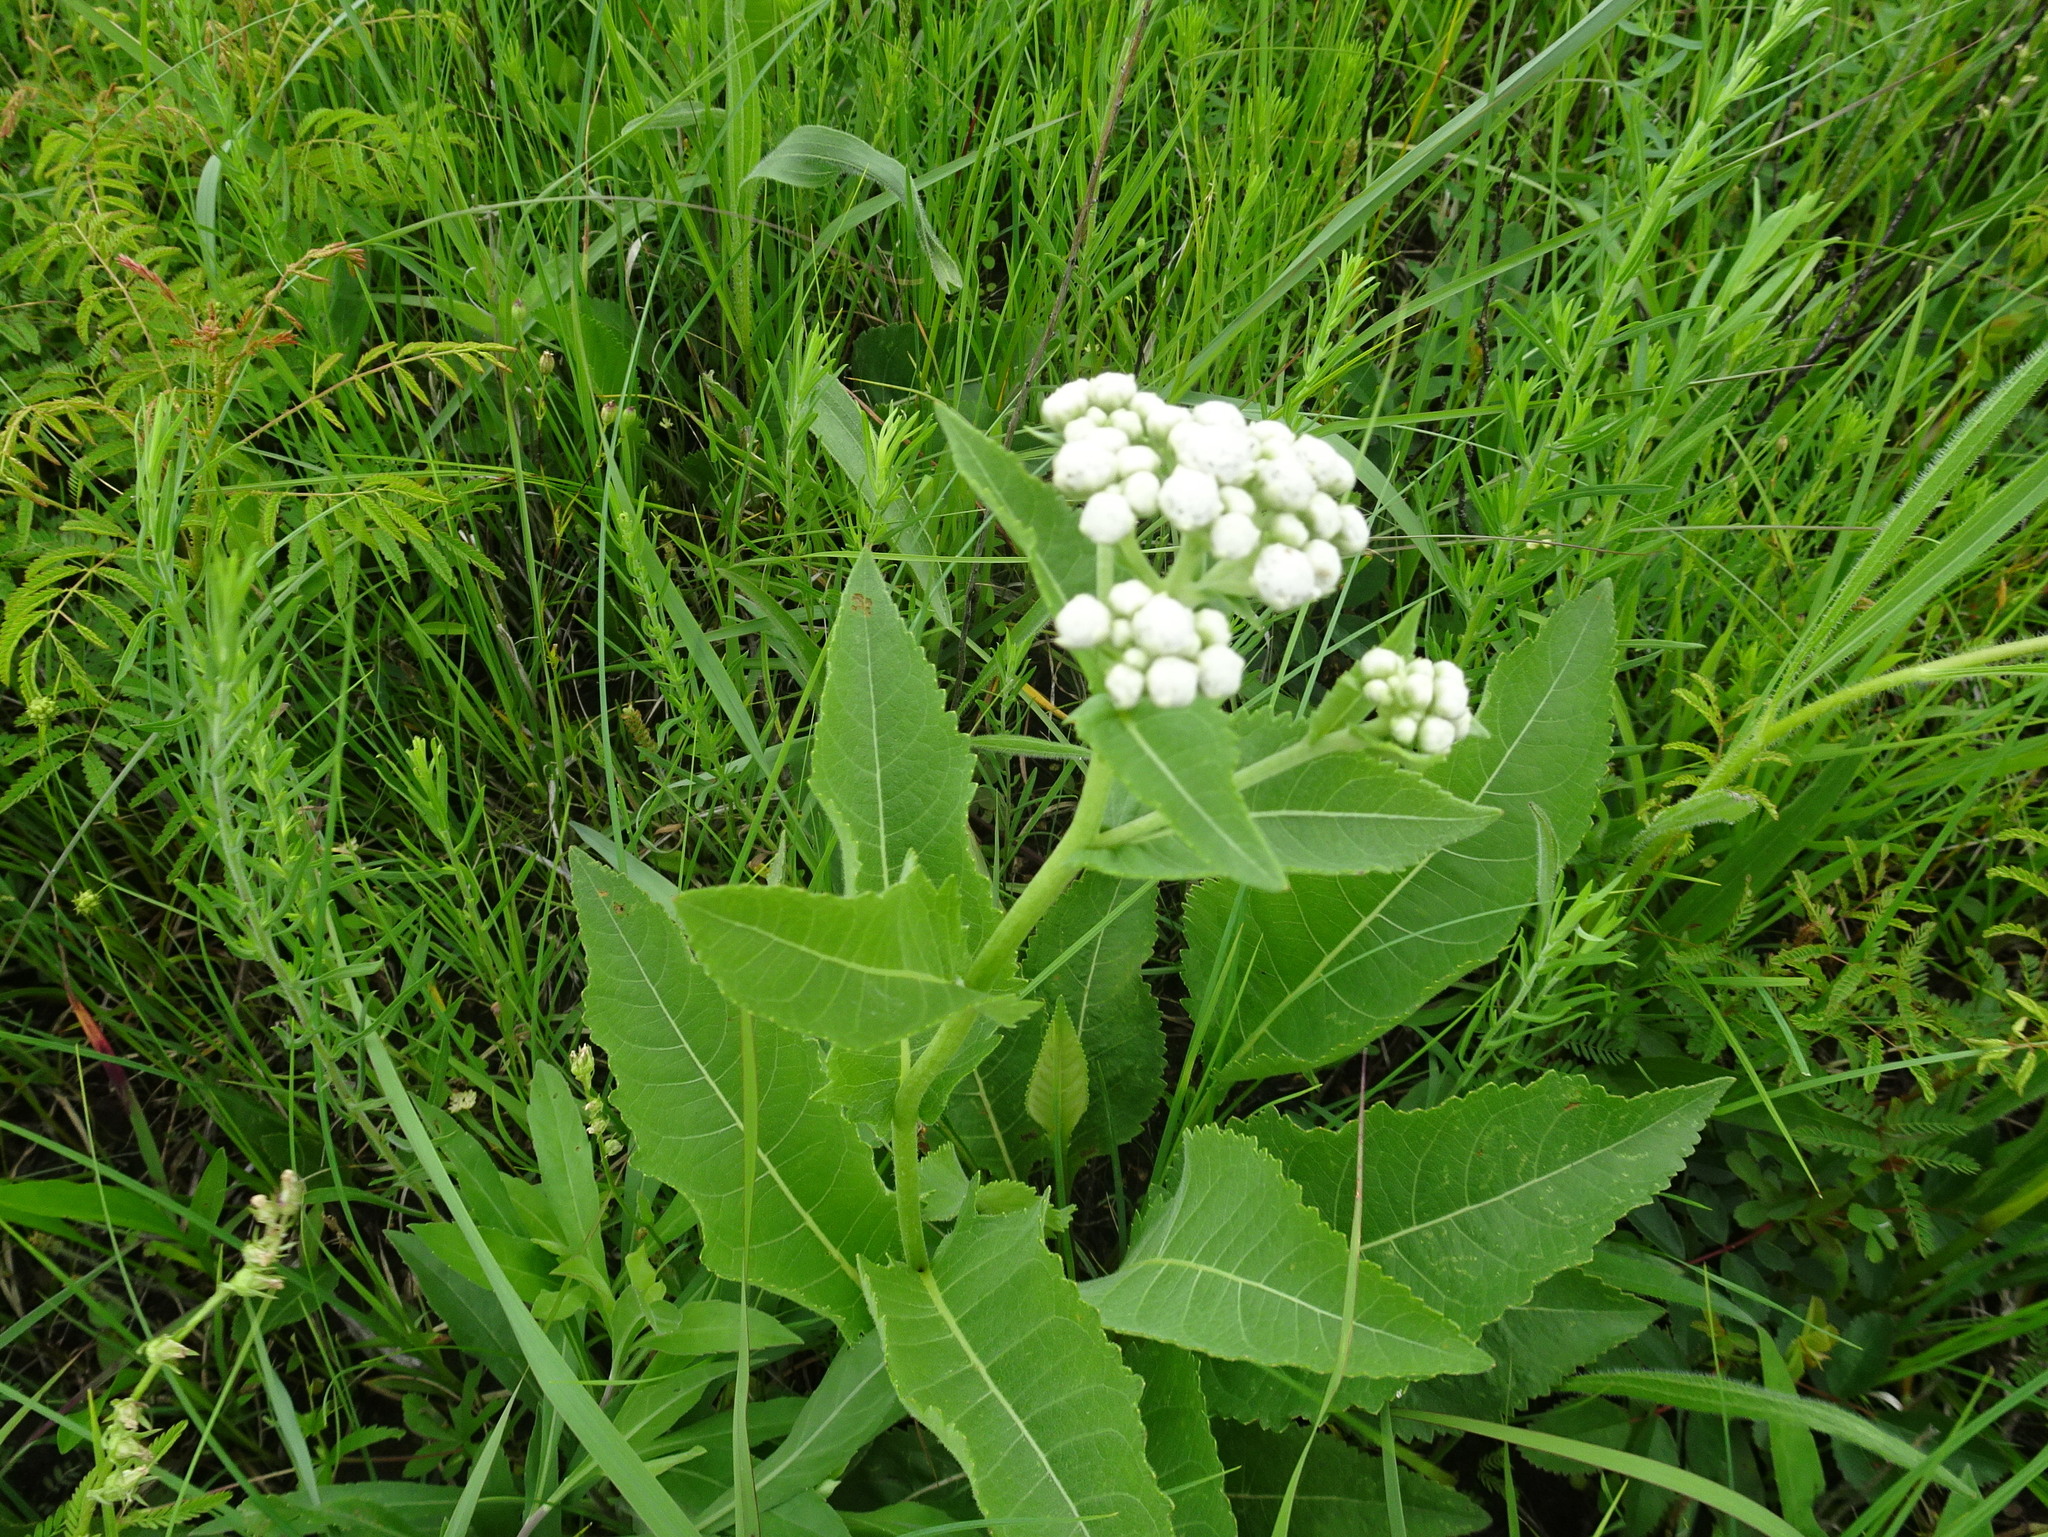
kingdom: Plantae
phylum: Tracheophyta
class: Magnoliopsida
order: Asterales
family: Asteraceae
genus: Parthenium
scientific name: Parthenium integrifolium
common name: American feverfew
